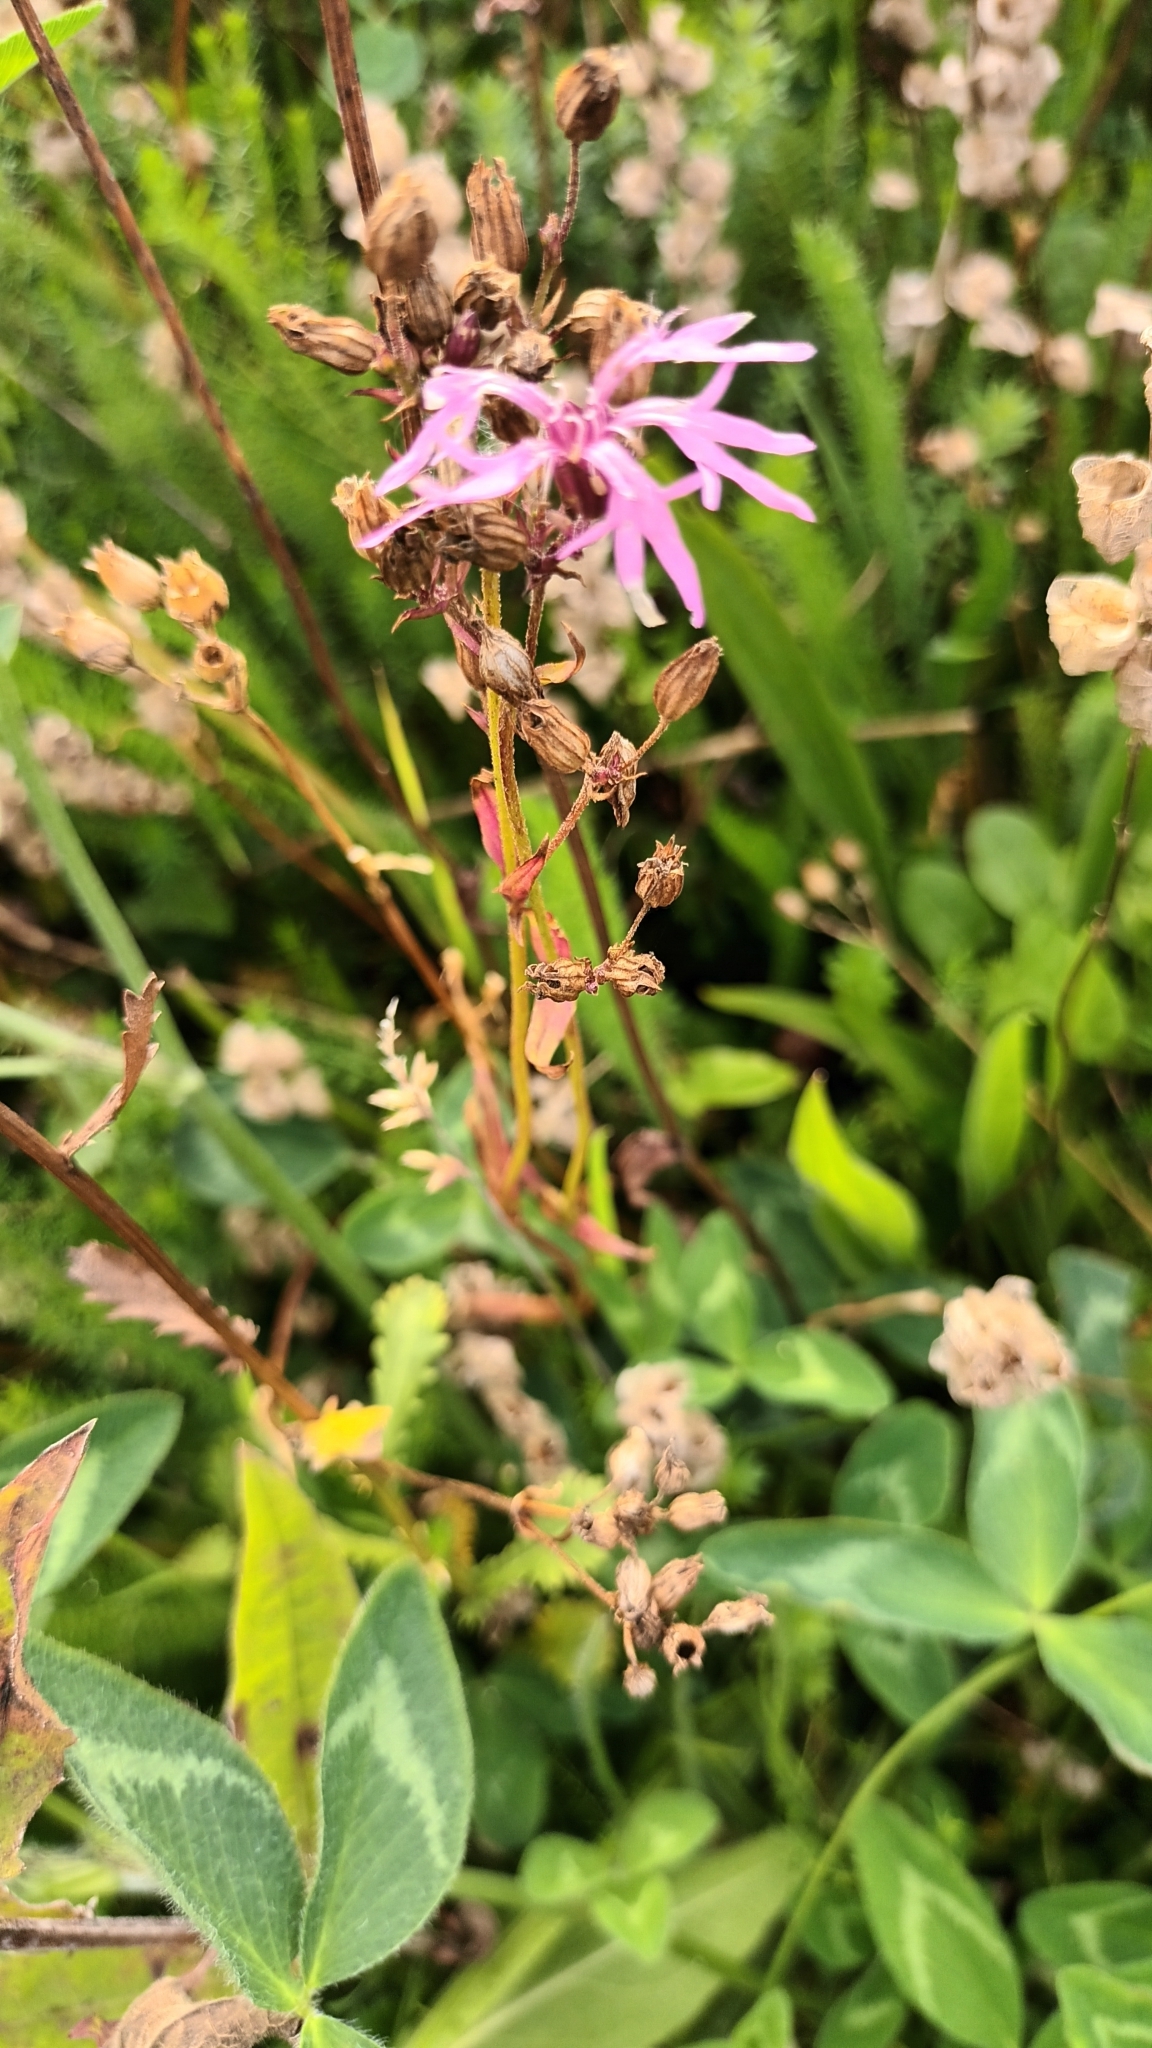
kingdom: Plantae
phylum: Tracheophyta
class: Magnoliopsida
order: Caryophyllales
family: Caryophyllaceae
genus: Silene
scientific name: Silene flos-cuculi
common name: Ragged-robin
